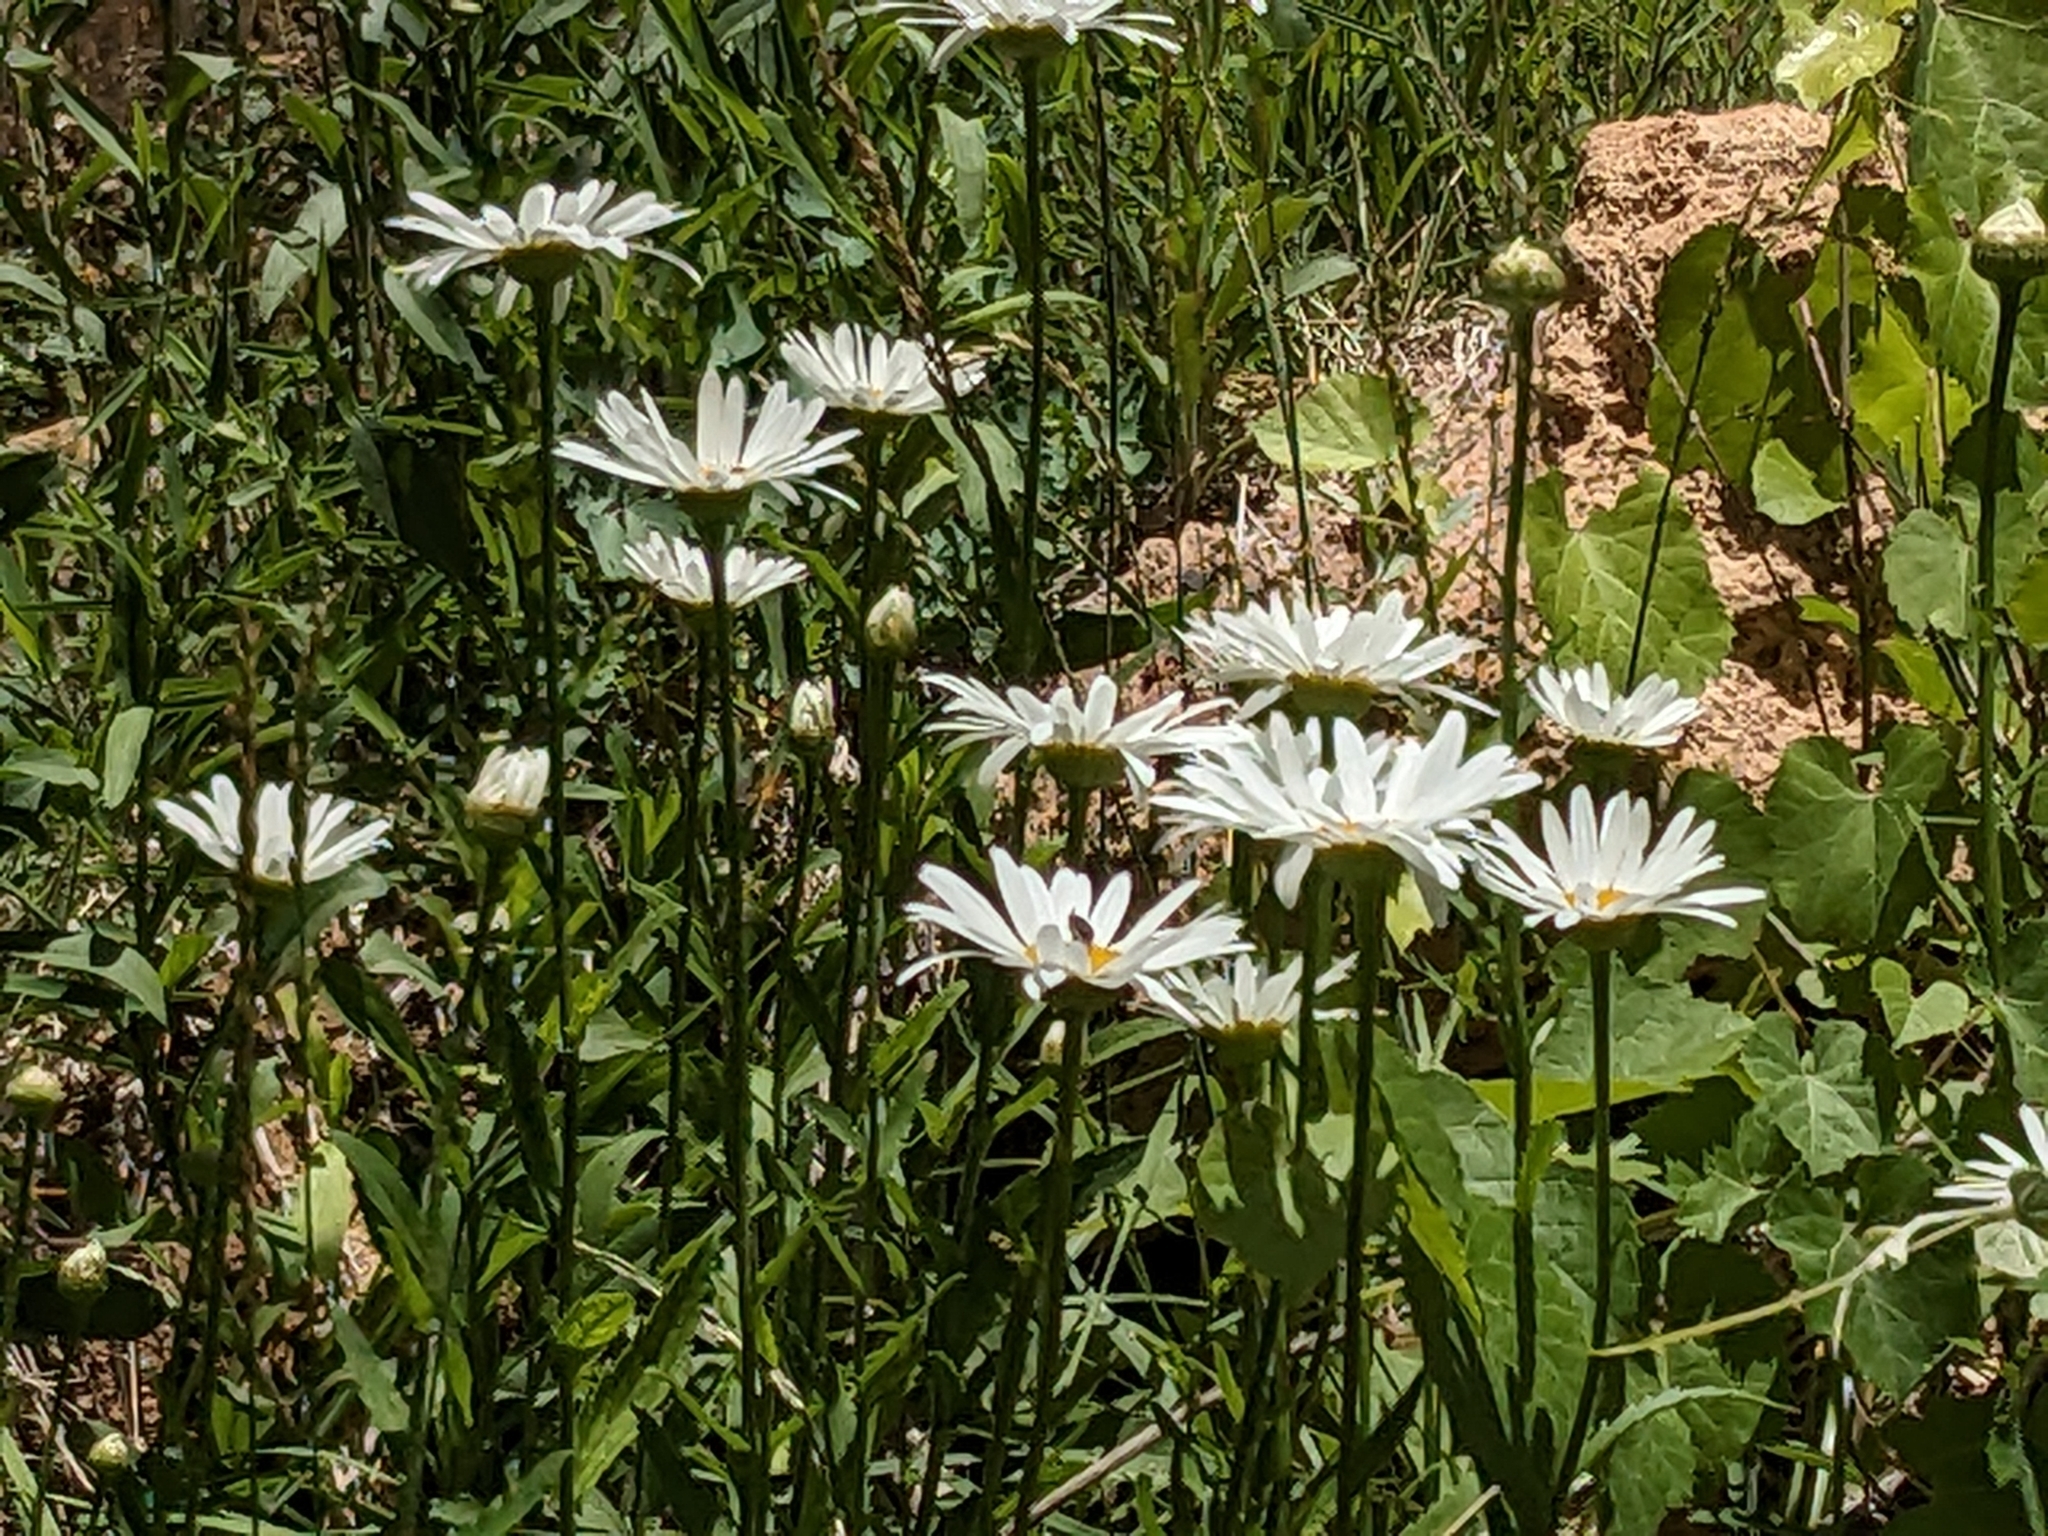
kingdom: Plantae
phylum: Tracheophyta
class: Magnoliopsida
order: Asterales
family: Asteraceae
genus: Leucanthemum
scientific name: Leucanthemum vulgare
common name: Oxeye daisy
